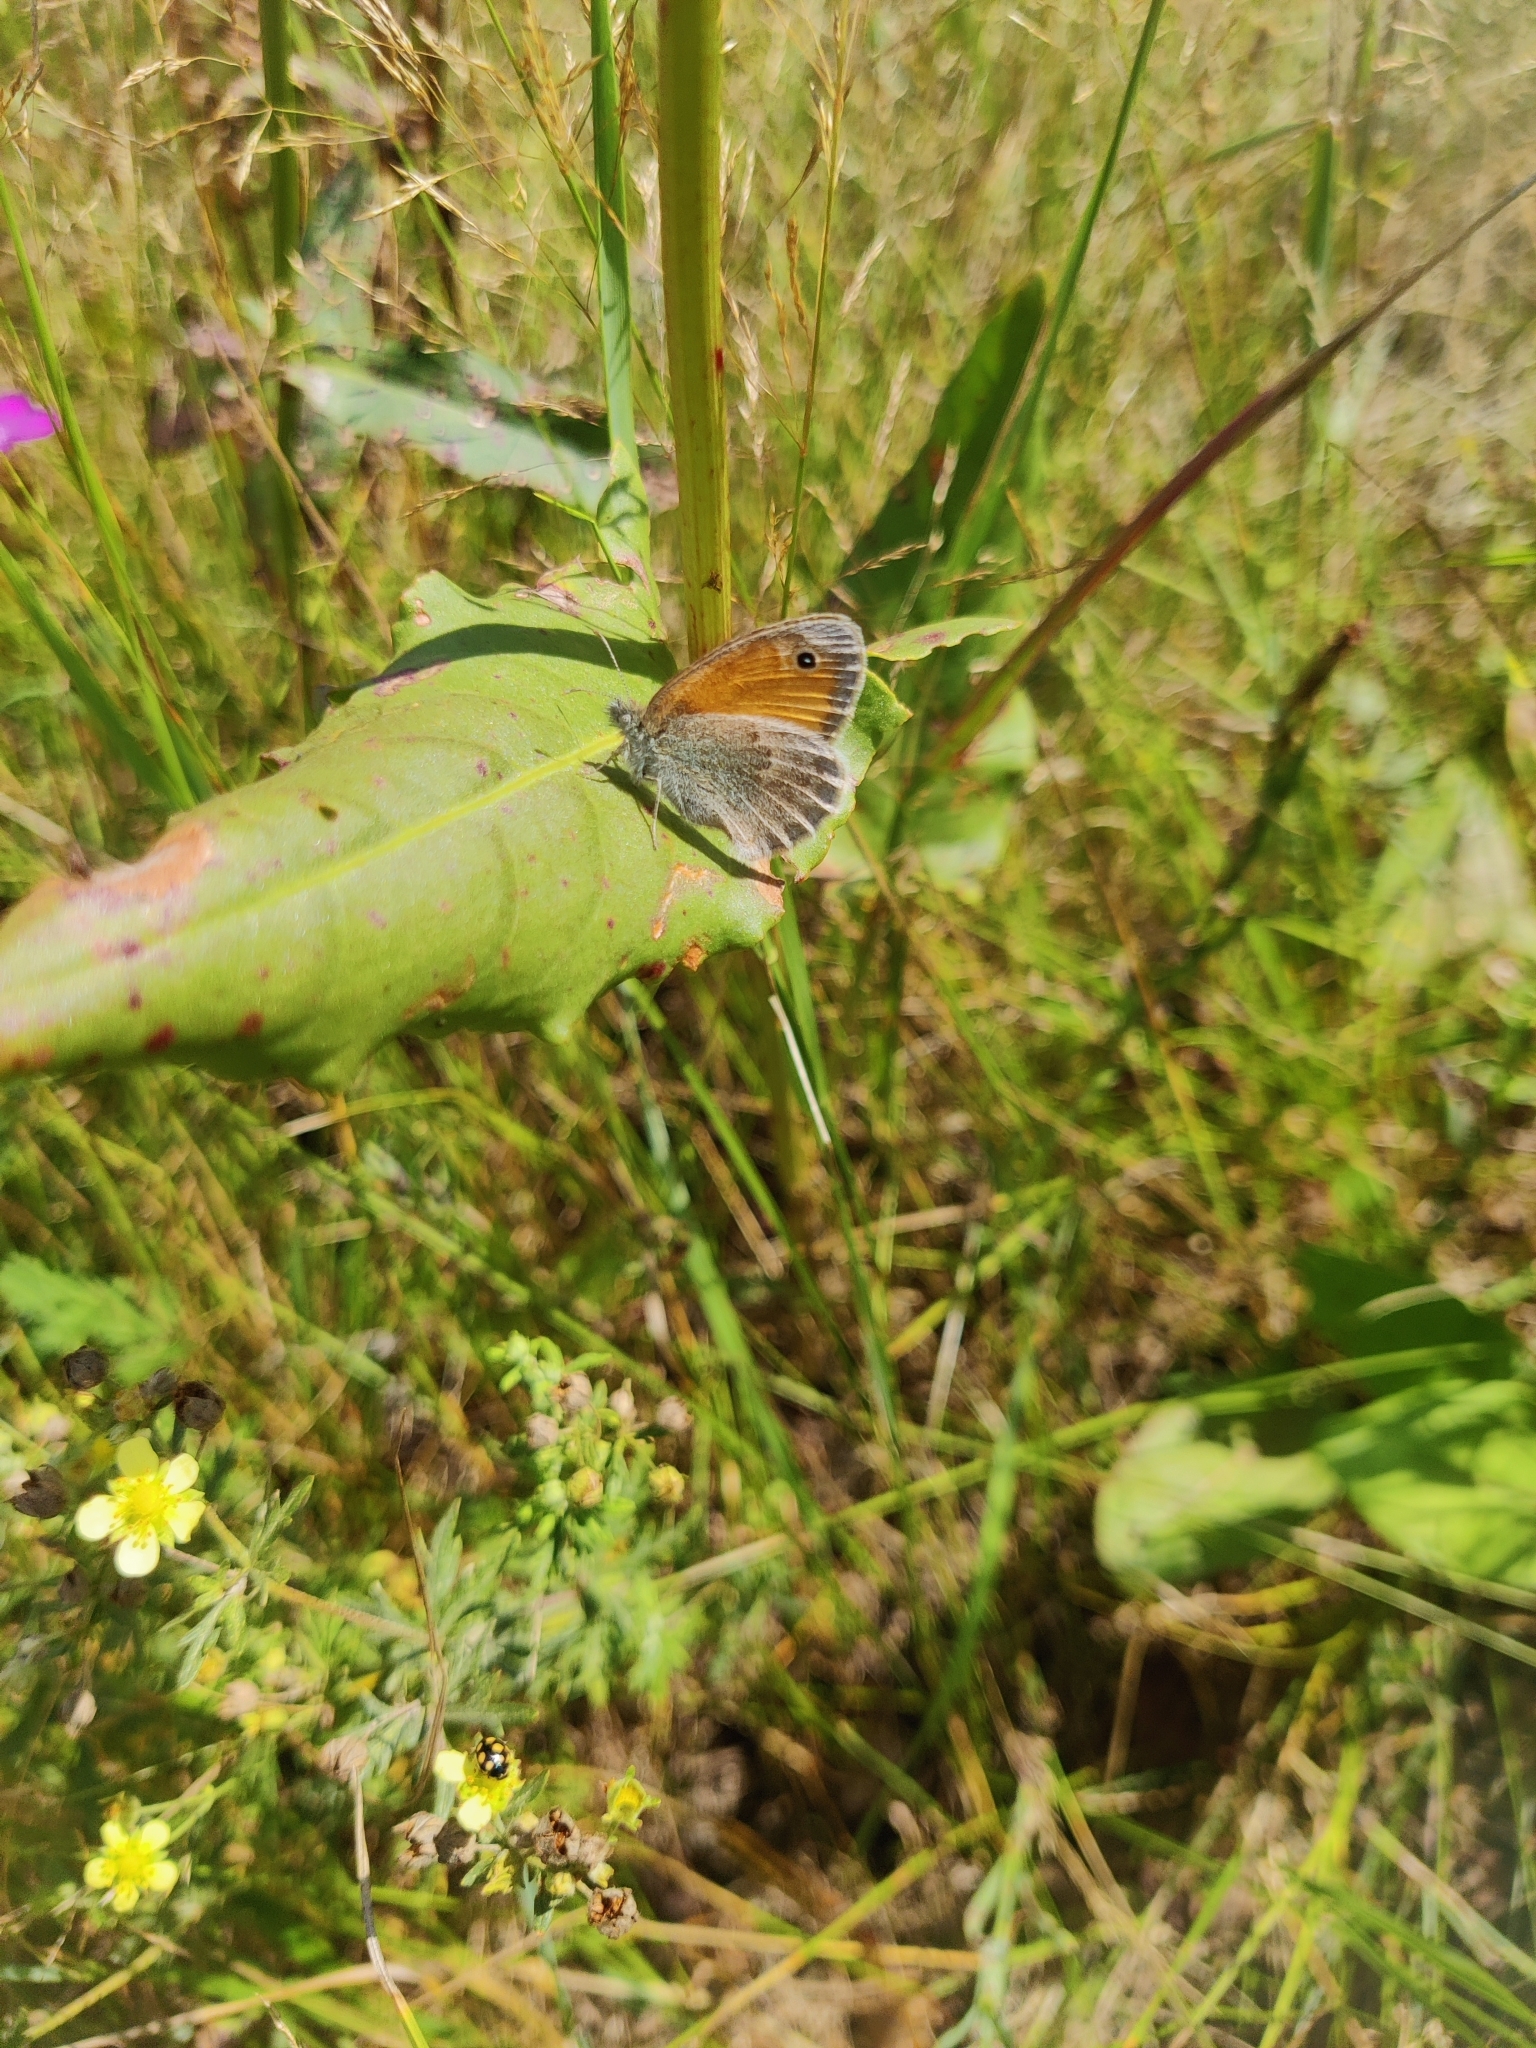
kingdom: Animalia
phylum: Arthropoda
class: Insecta
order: Lepidoptera
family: Nymphalidae
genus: Coenonympha
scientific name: Coenonympha pamphilus
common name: Small heath
